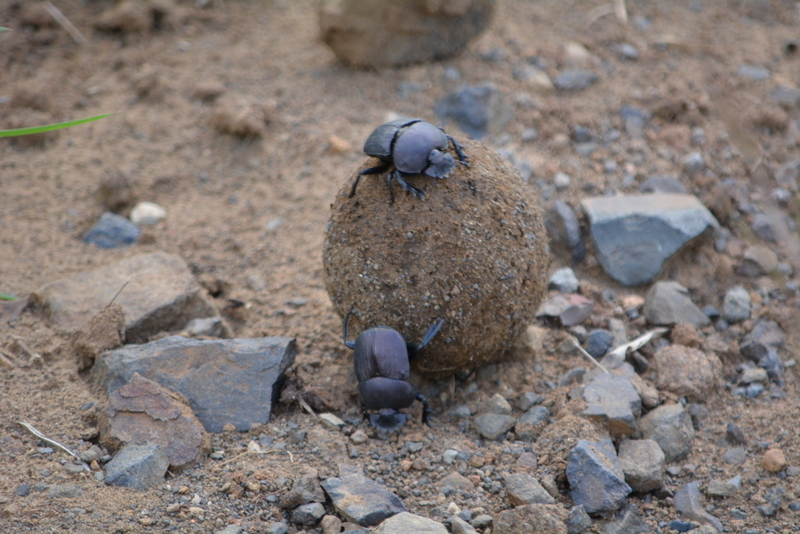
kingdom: Animalia
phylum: Arthropoda
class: Insecta
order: Coleoptera
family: Scarabaeidae
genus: Chalconotus
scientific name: Chalconotus convexus
